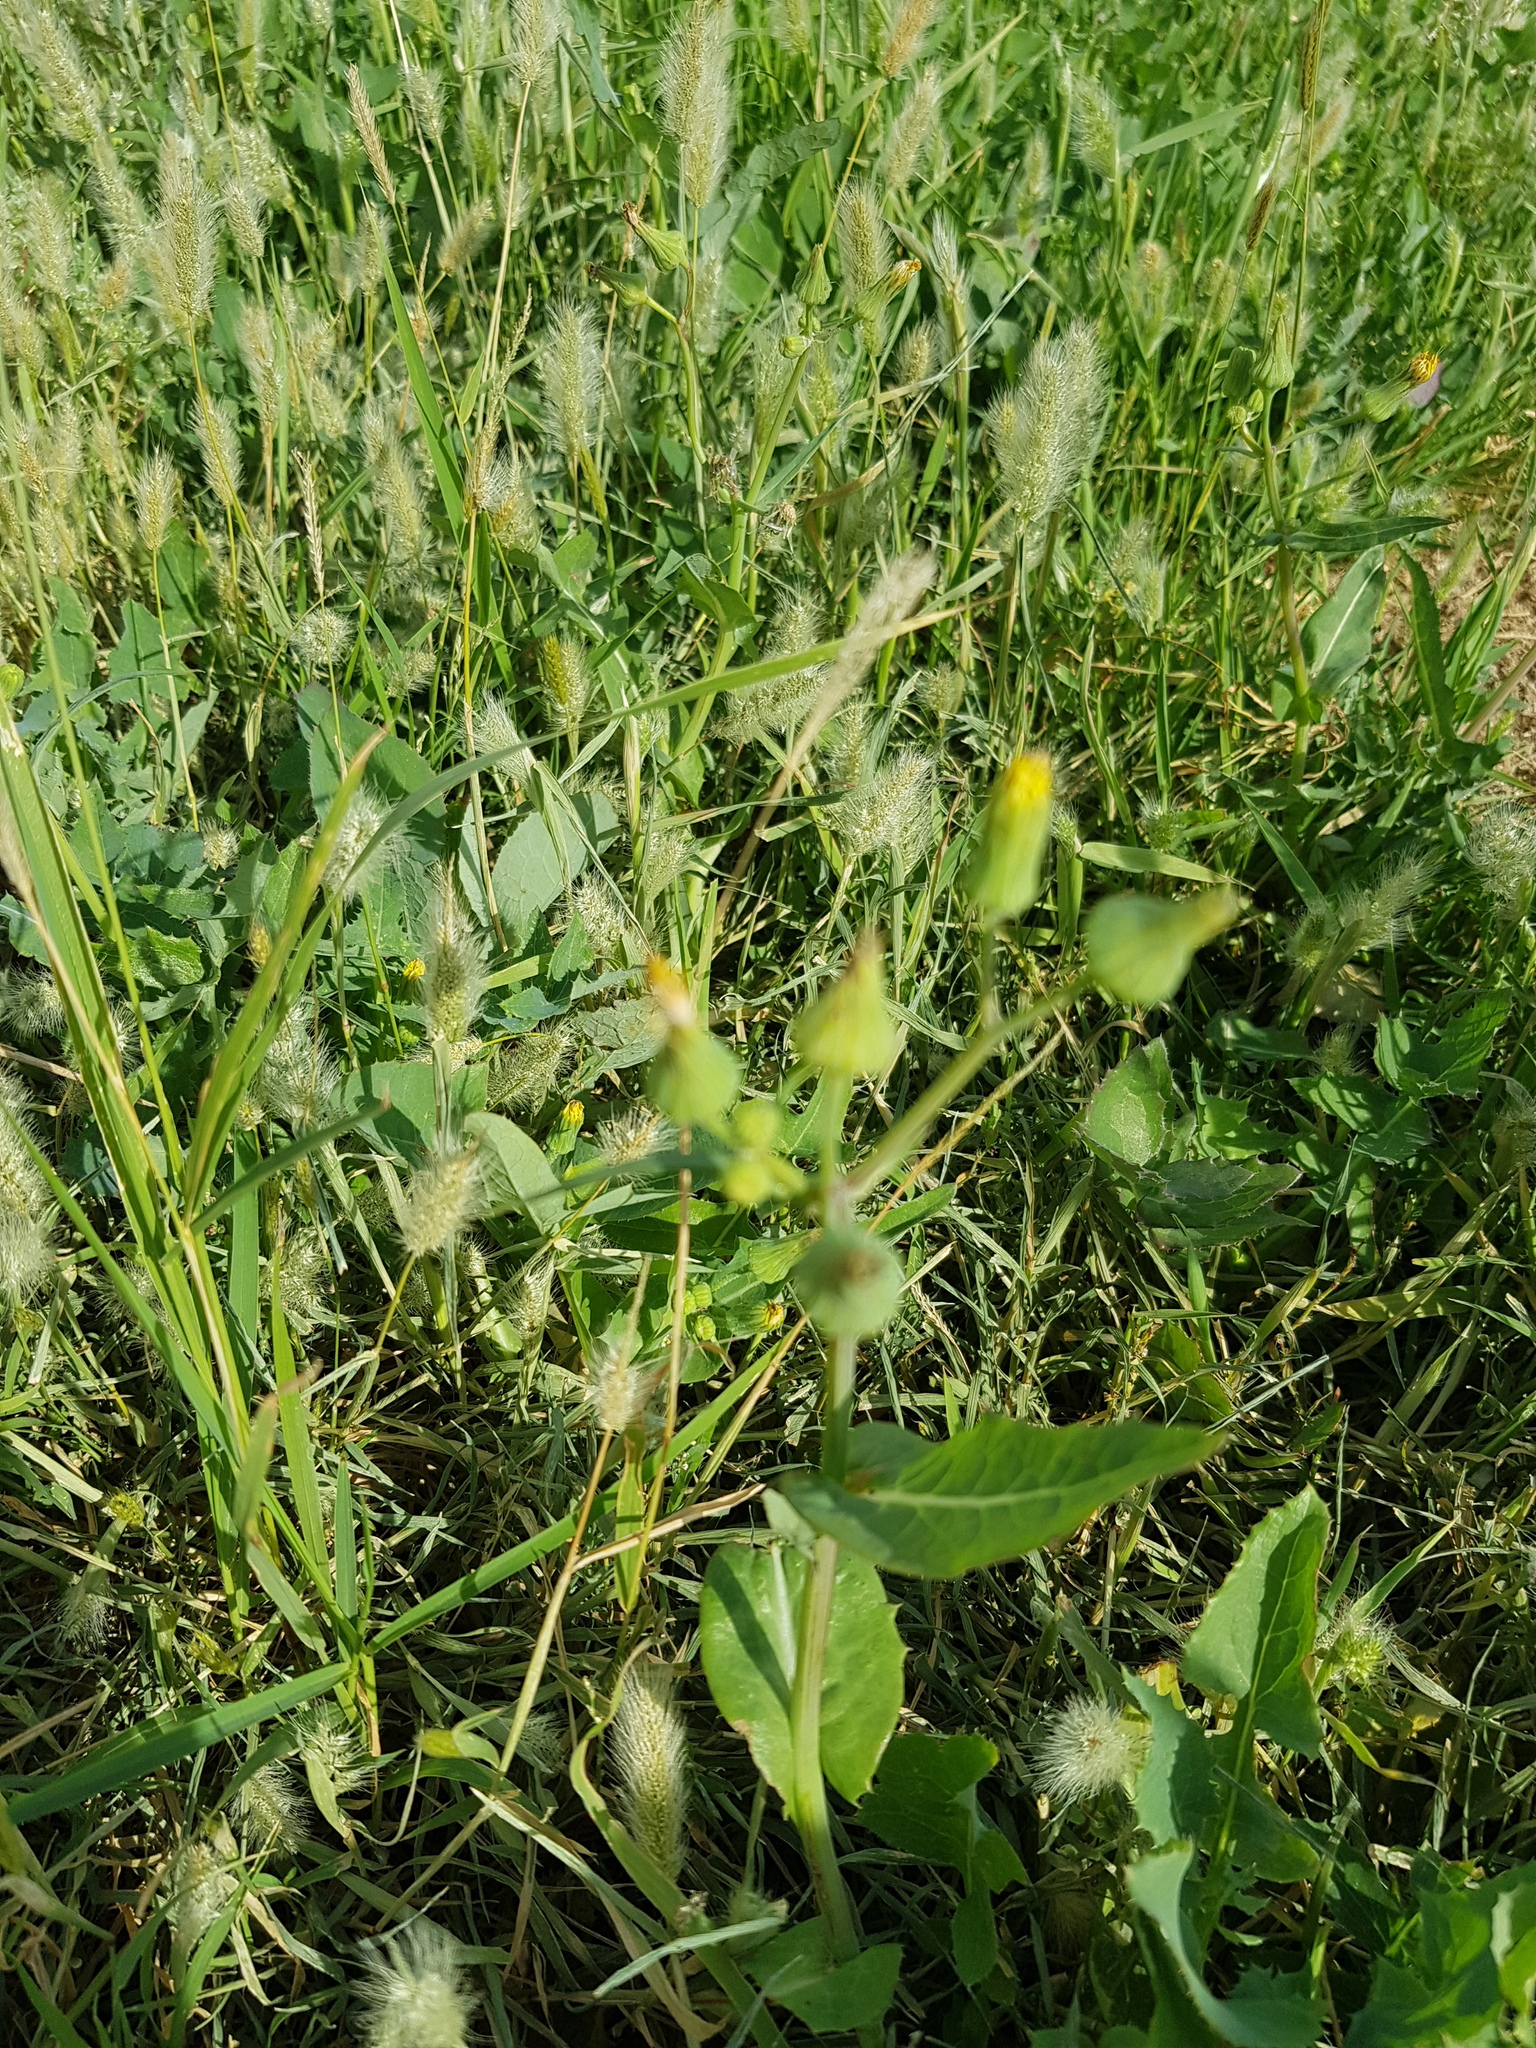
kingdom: Plantae
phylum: Tracheophyta
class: Liliopsida
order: Poales
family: Poaceae
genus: Setaria
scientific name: Setaria viridis
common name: Green bristlegrass
